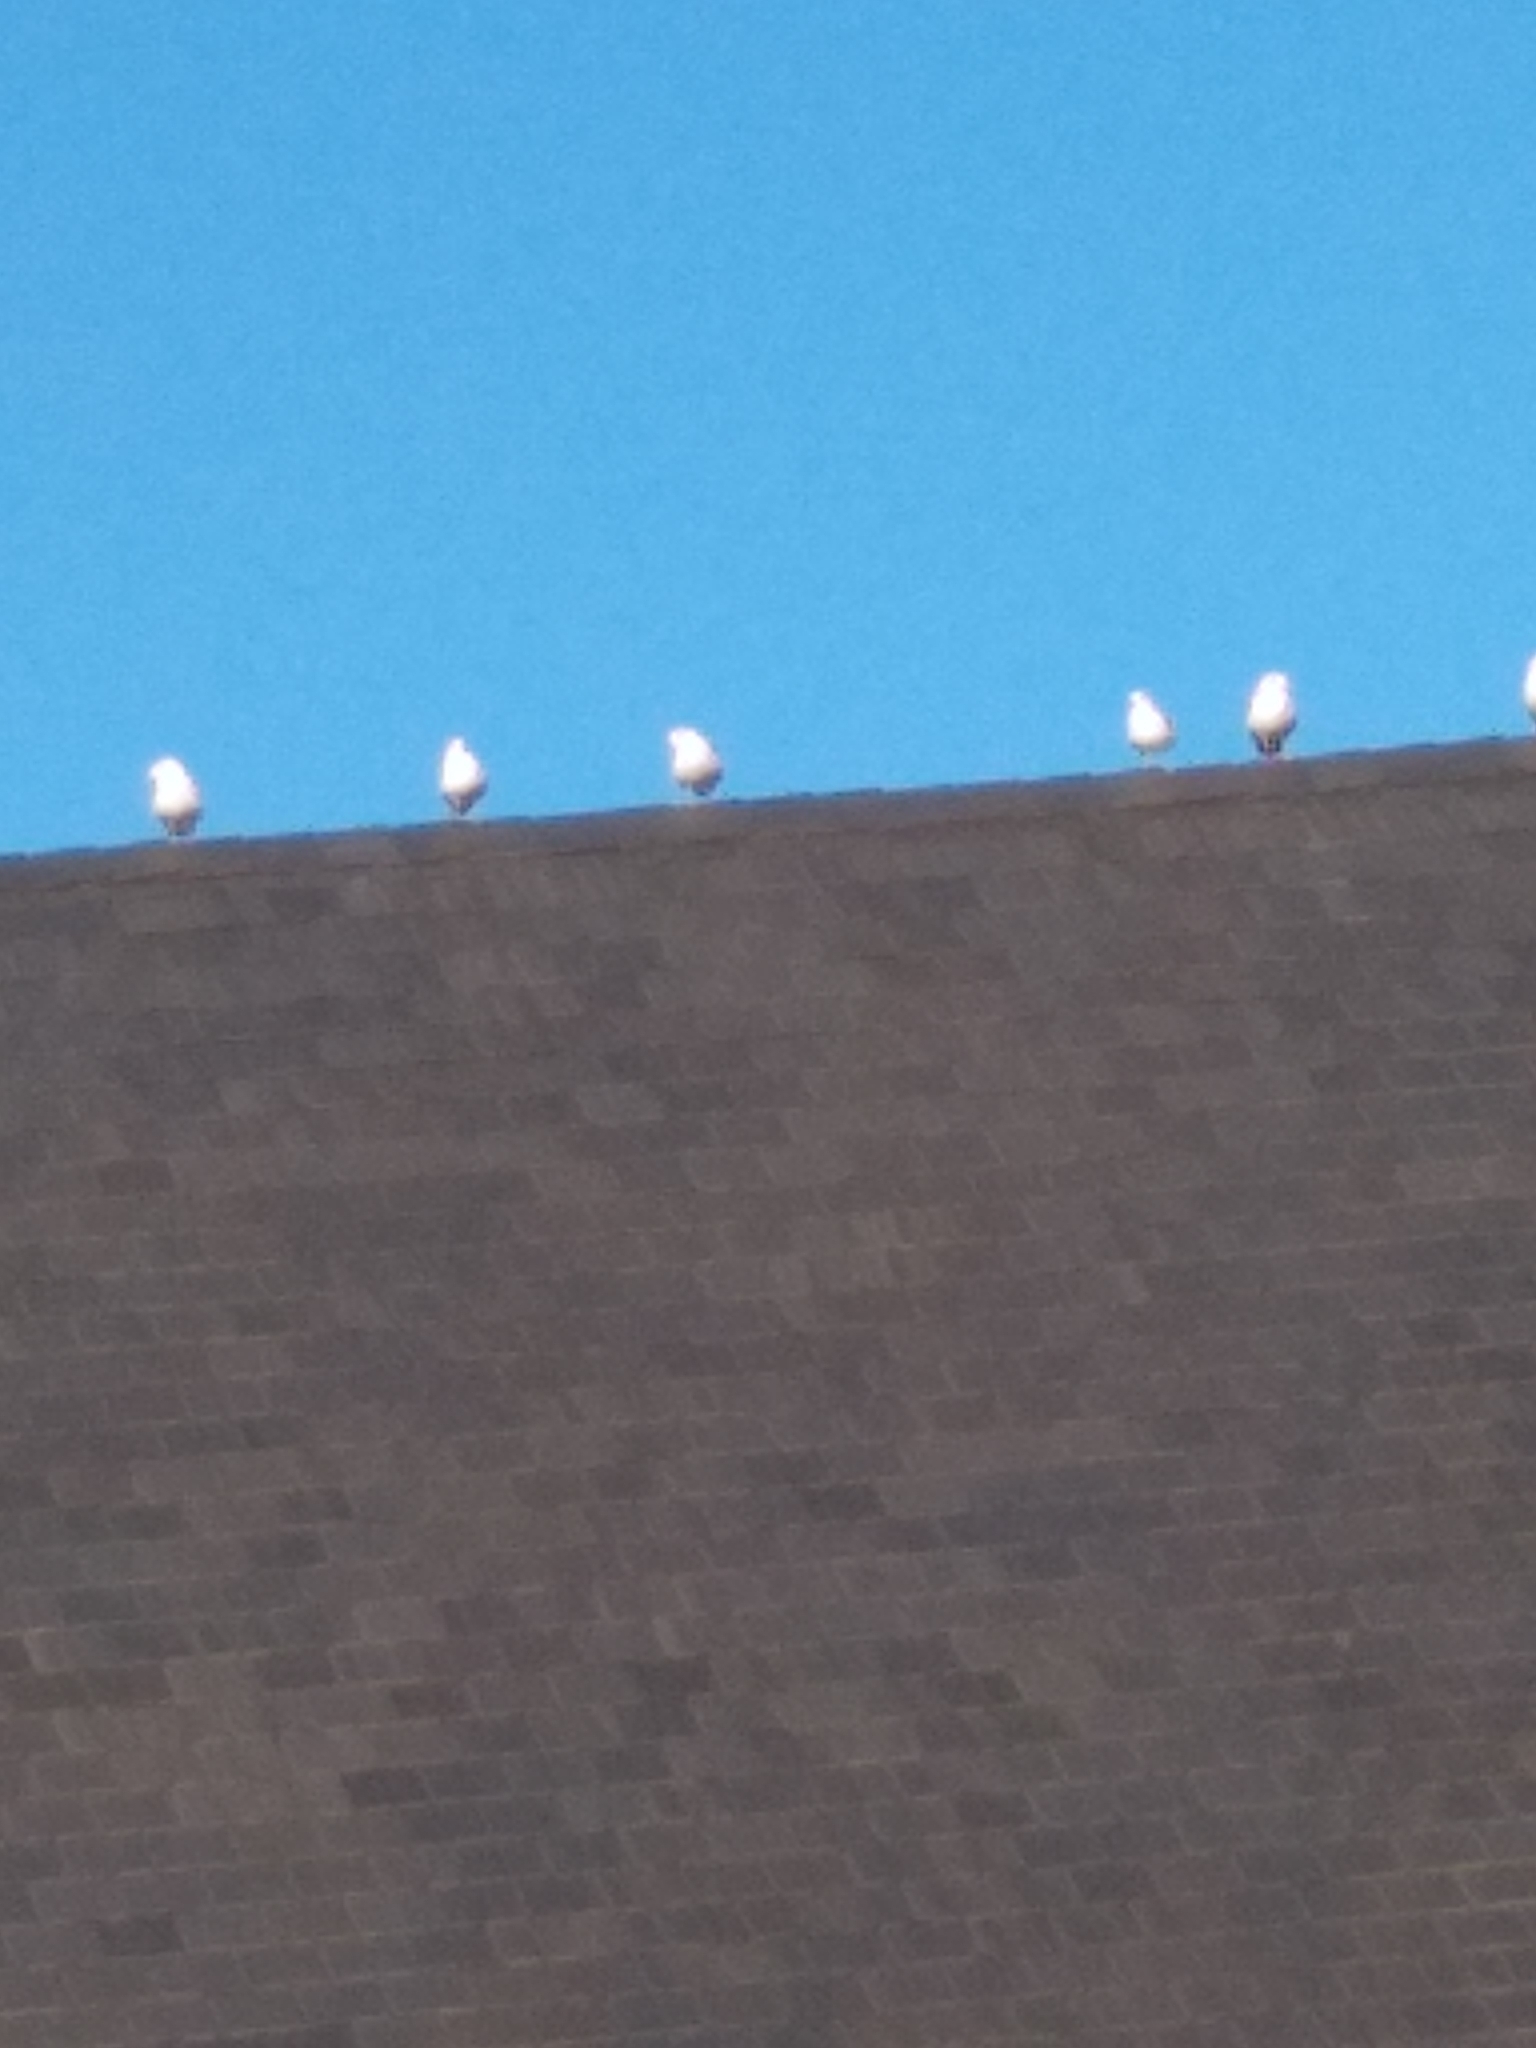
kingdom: Animalia
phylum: Chordata
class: Aves
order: Charadriiformes
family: Laridae
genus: Larus
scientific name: Larus delawarensis
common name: Ring-billed gull
